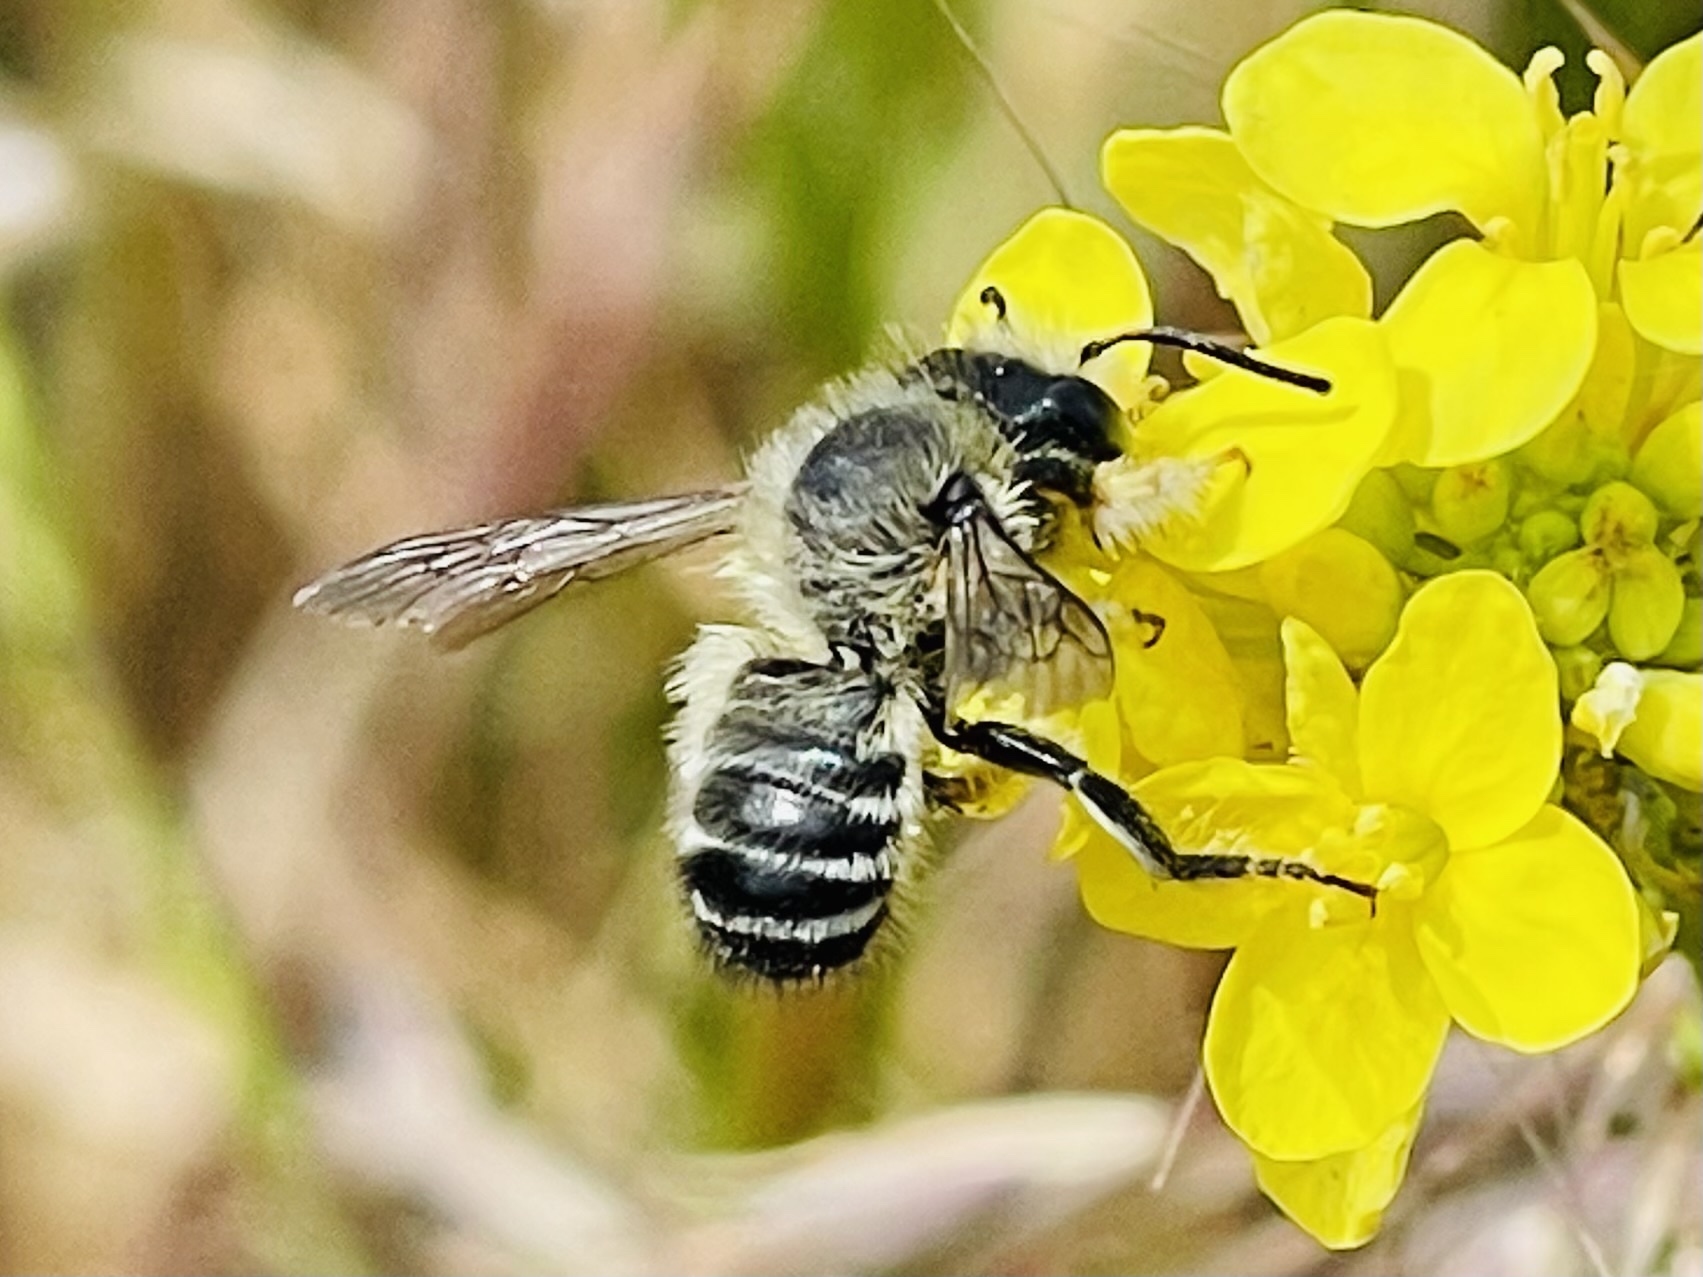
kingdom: Animalia
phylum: Arthropoda
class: Insecta
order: Hymenoptera
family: Megachilidae
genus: Megachile
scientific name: Megachile pollinosa
